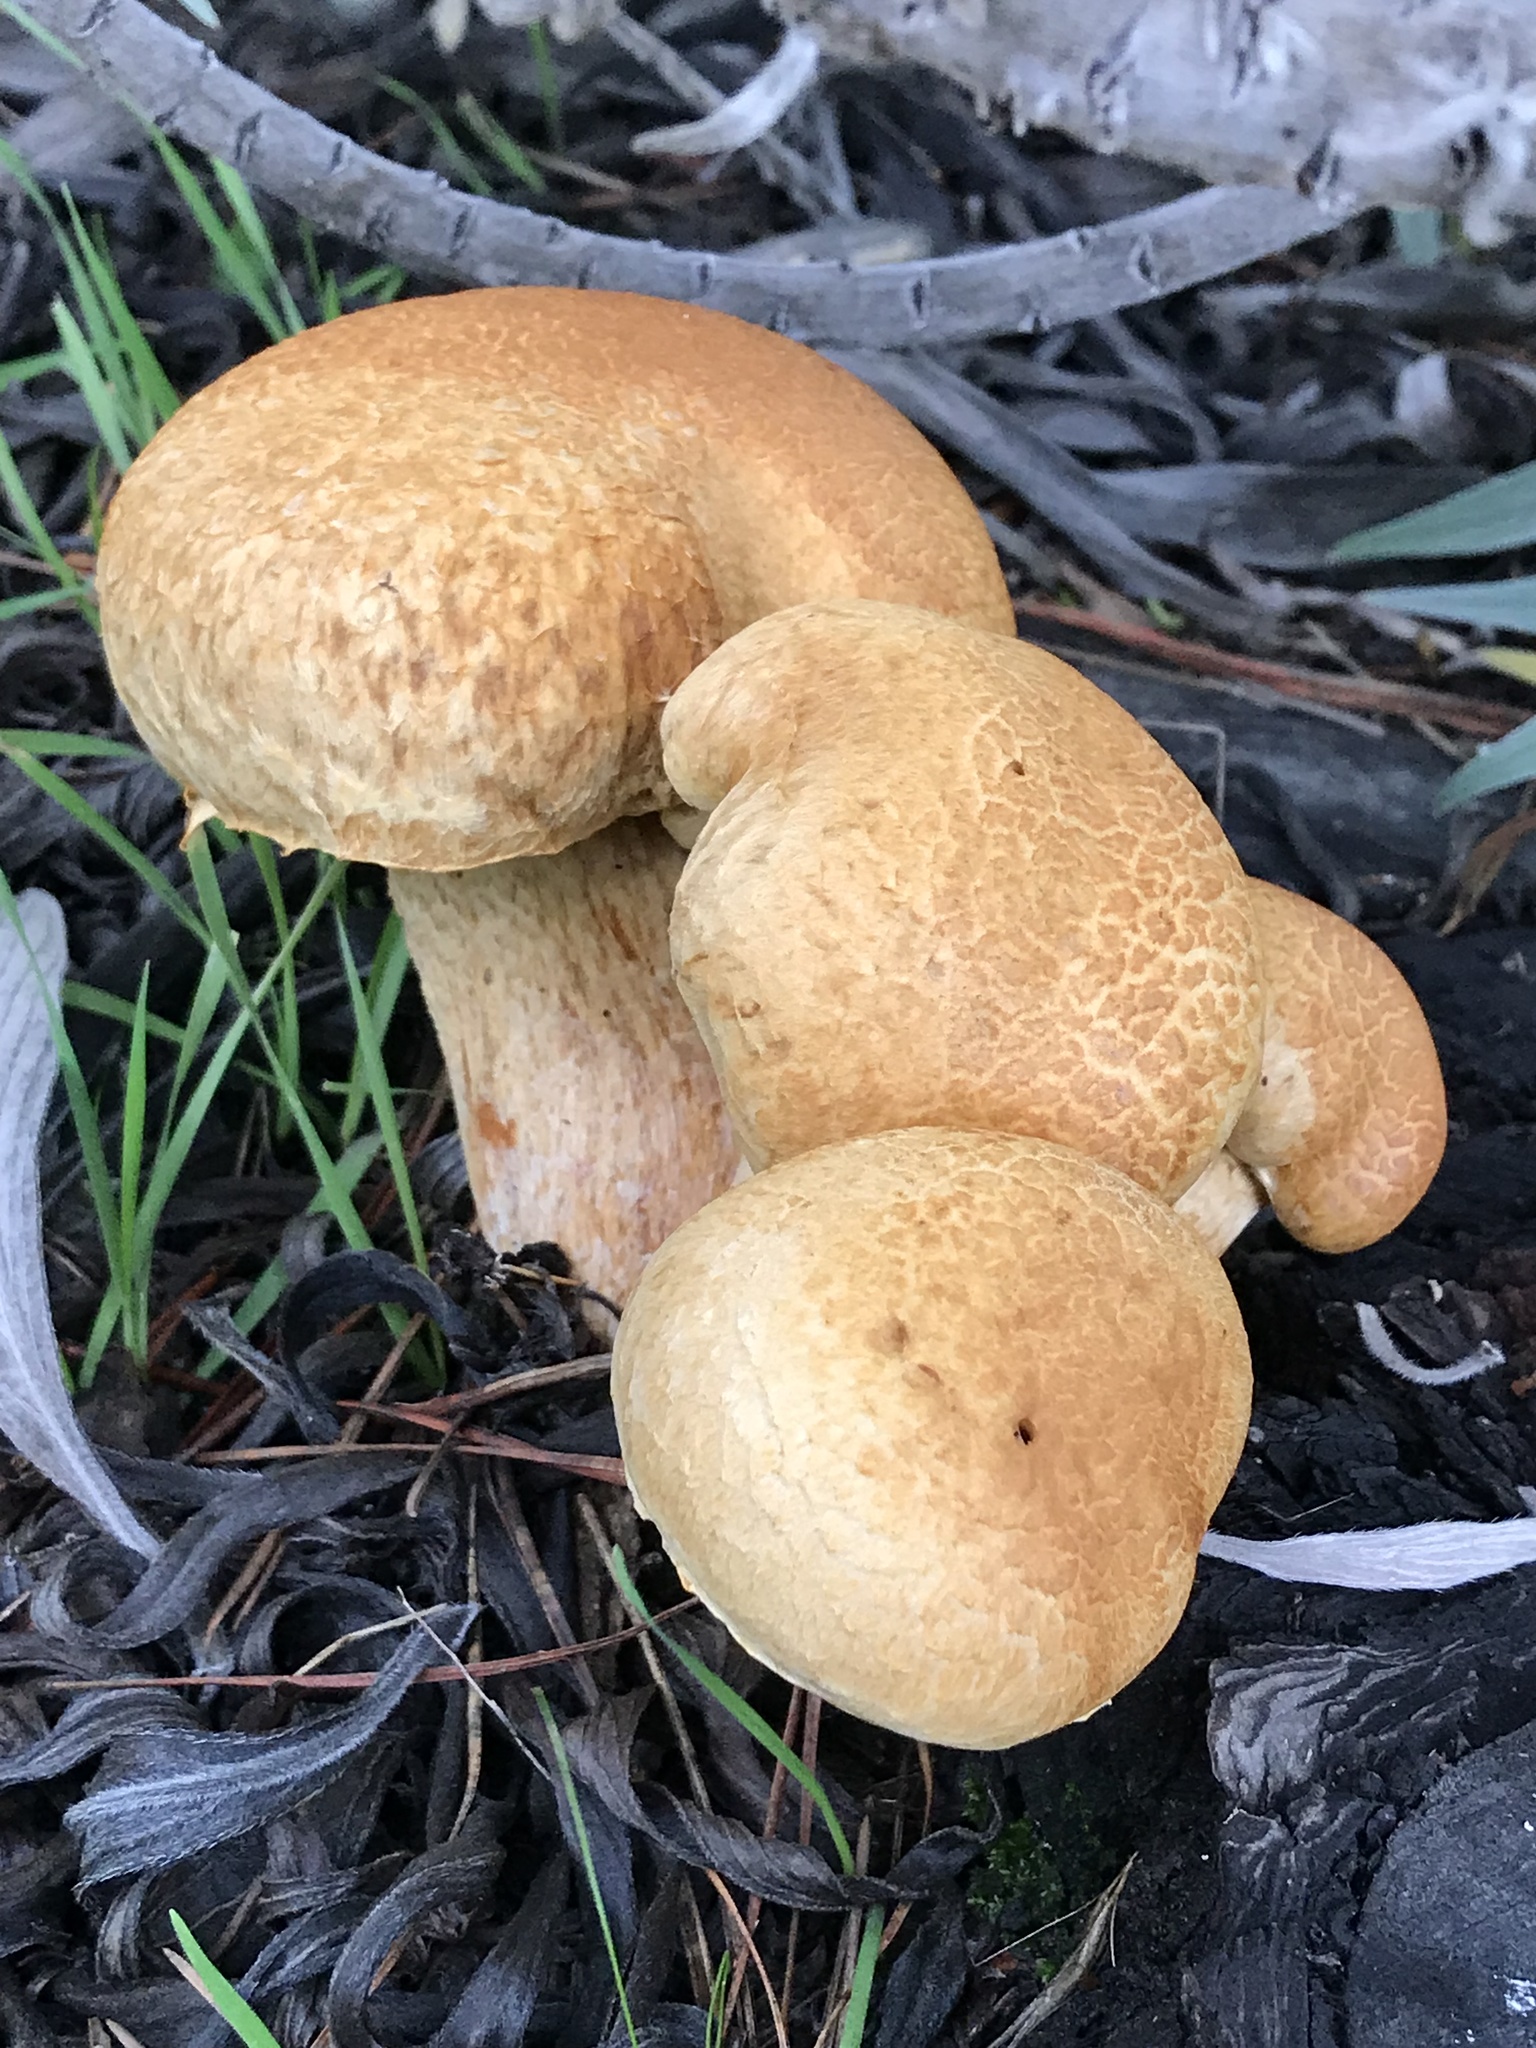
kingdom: Fungi
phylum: Basidiomycota
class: Agaricomycetes
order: Agaricales
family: Hymenogastraceae
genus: Gymnopilus
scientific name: Gymnopilus ventricosus
